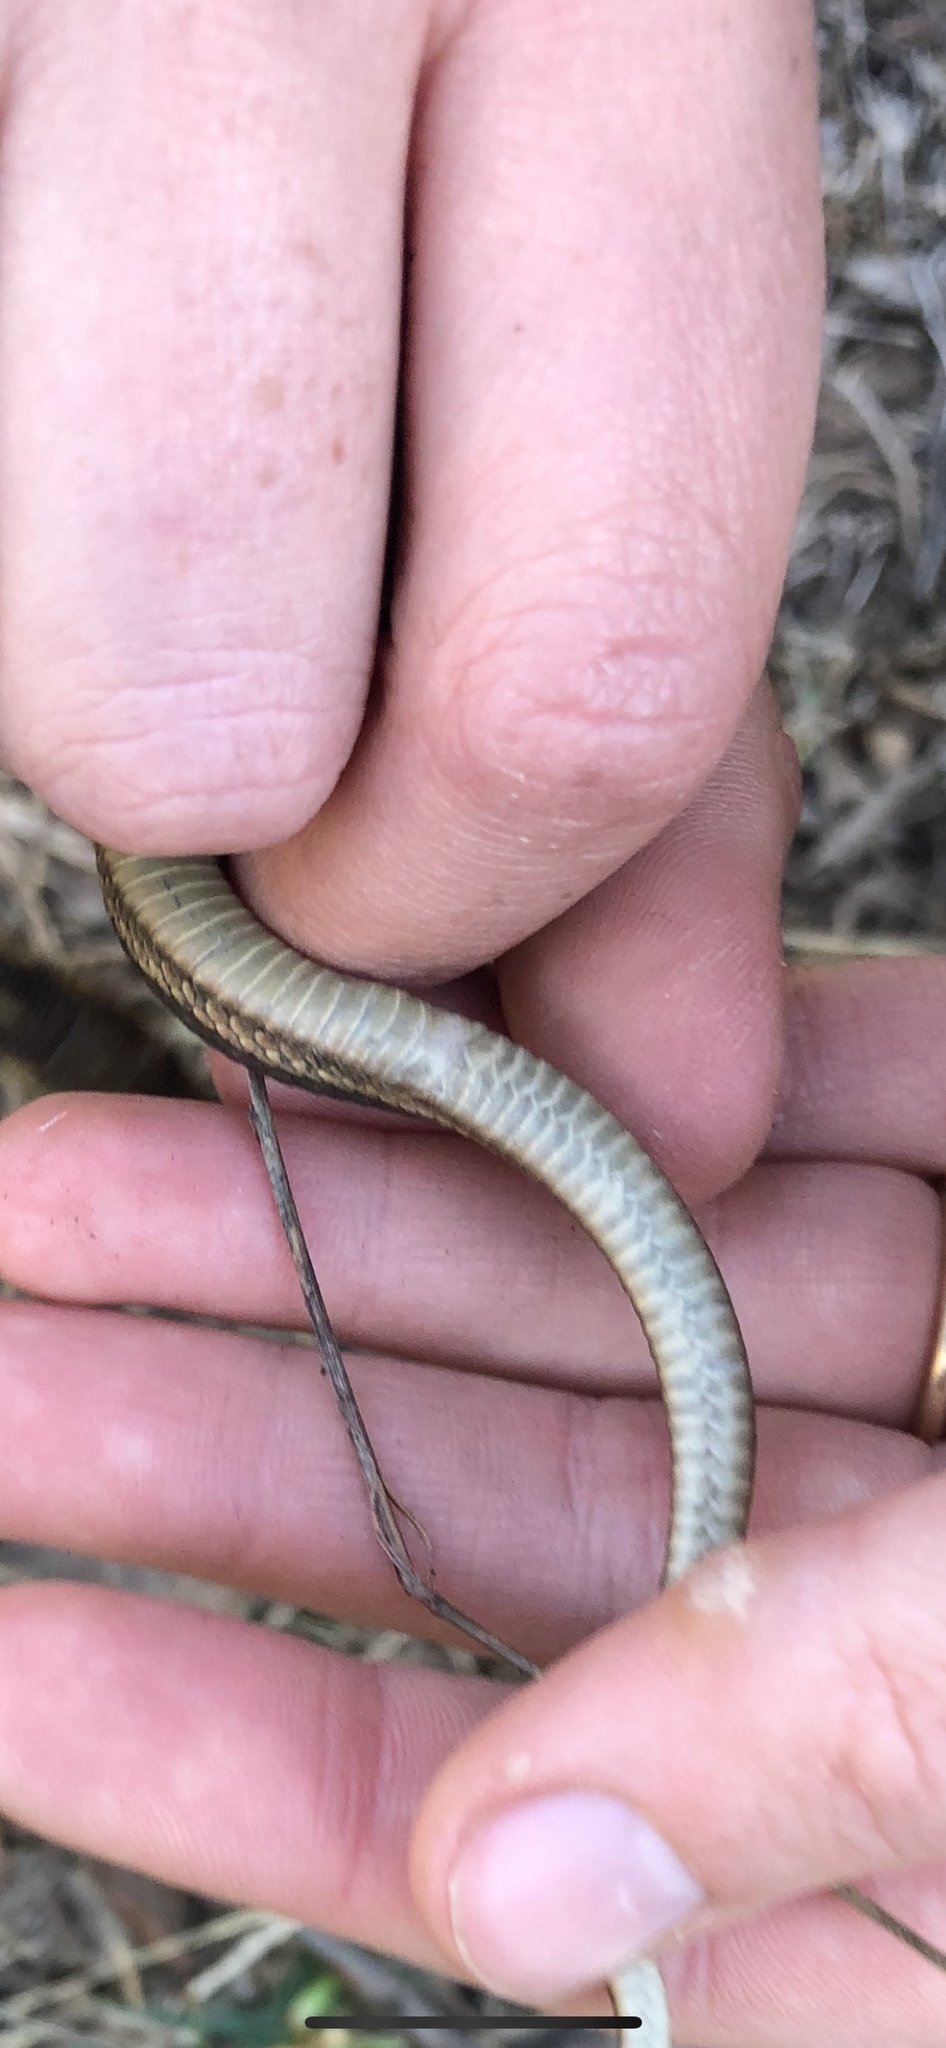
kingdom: Animalia
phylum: Chordata
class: Squamata
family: Colubridae
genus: Thamnophis
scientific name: Thamnophis sirtalis
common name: Common garter snake
